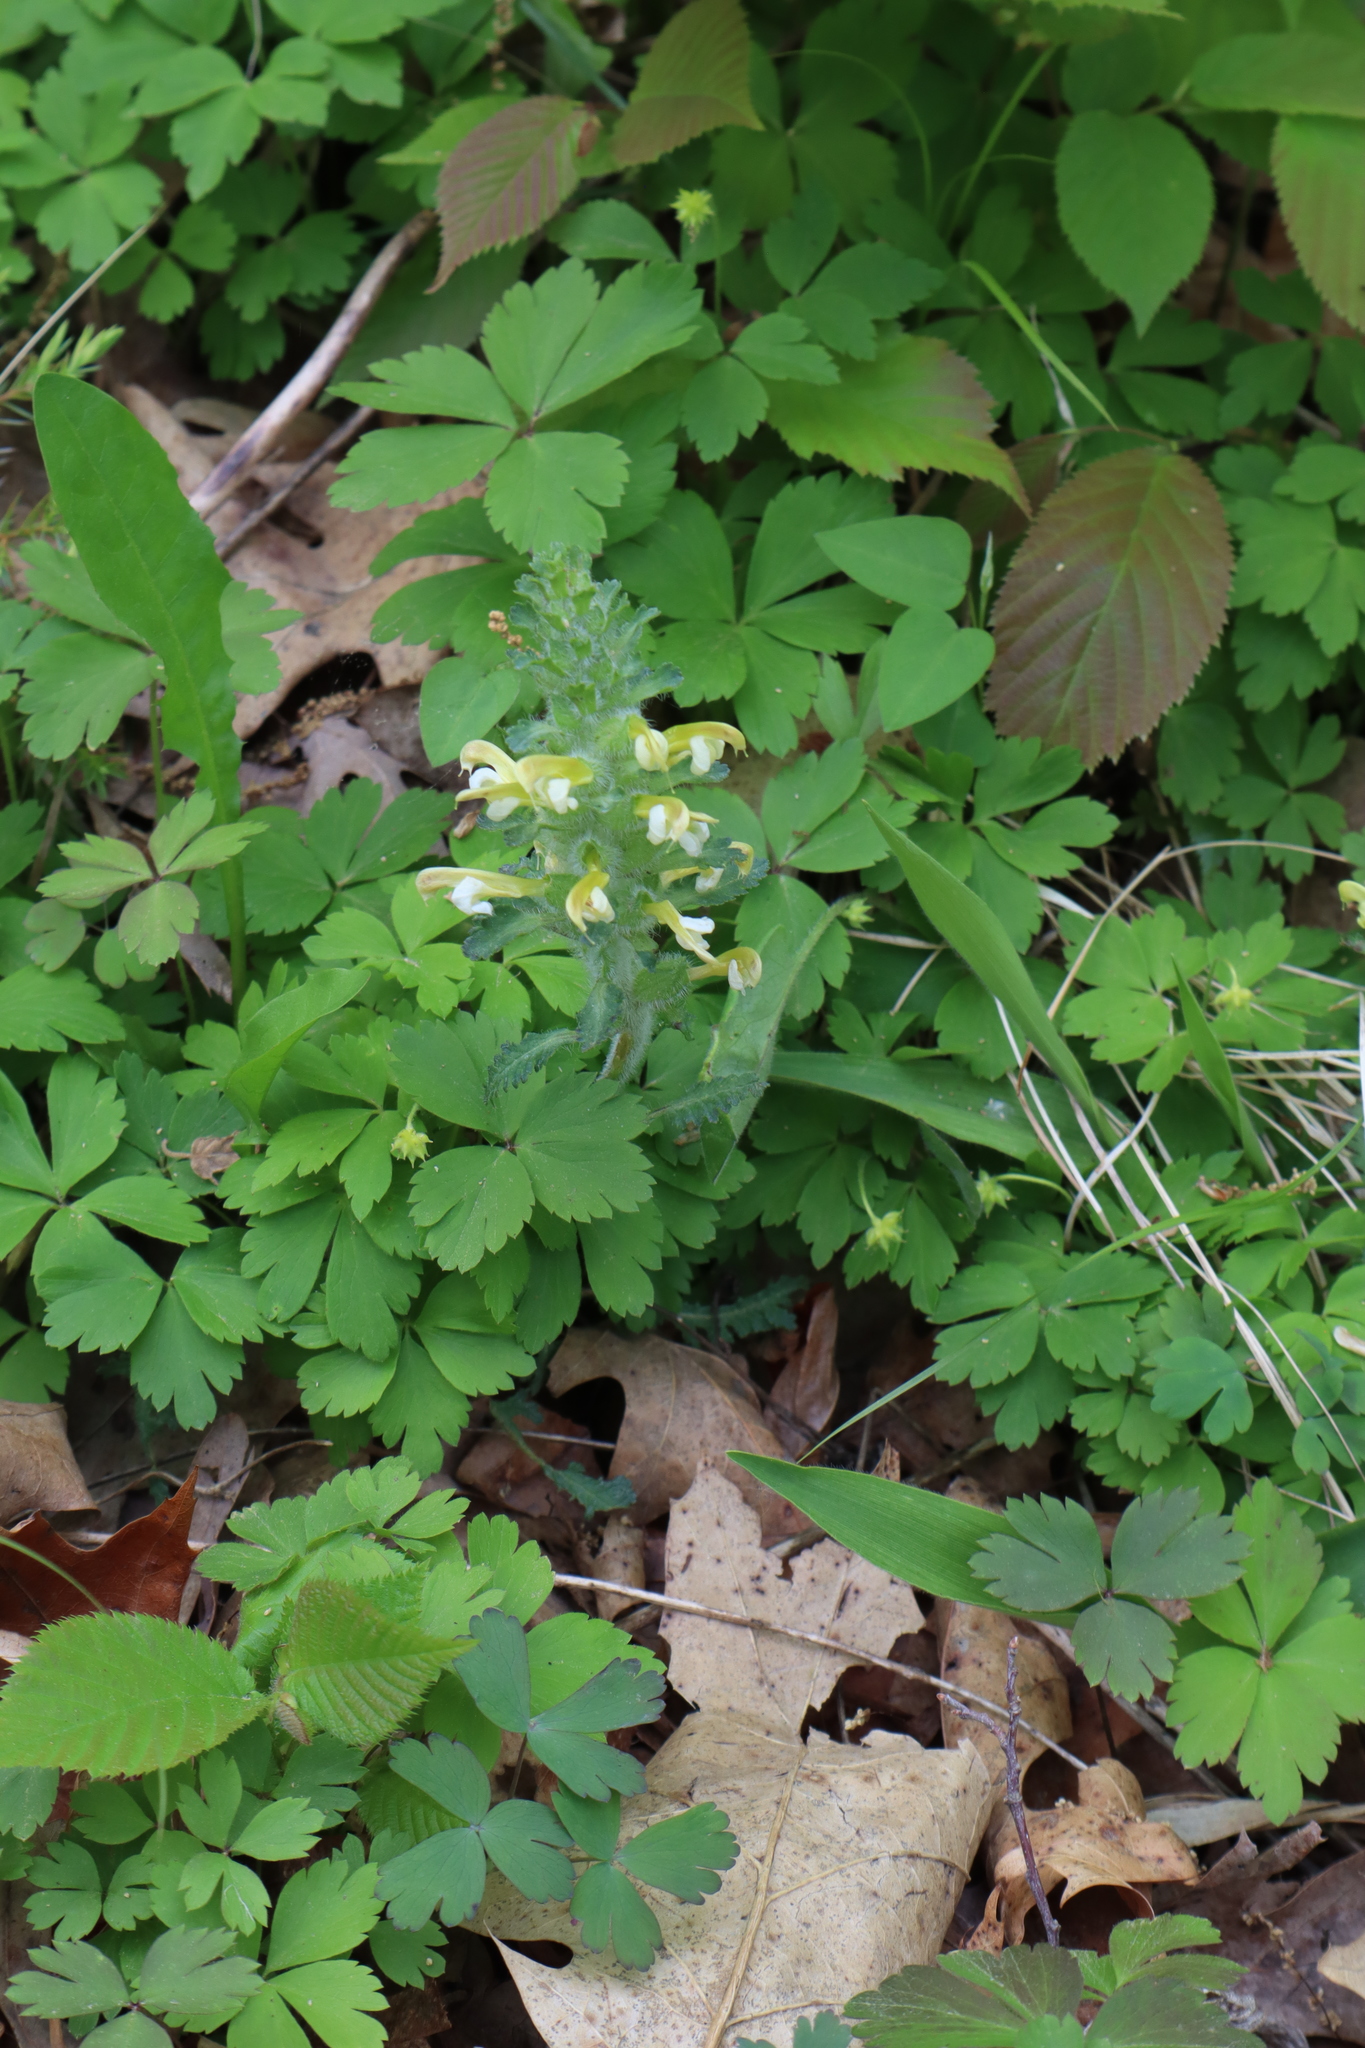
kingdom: Plantae
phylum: Tracheophyta
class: Magnoliopsida
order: Lamiales
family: Orobanchaceae
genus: Pedicularis
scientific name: Pedicularis canadensis
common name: Early lousewort
